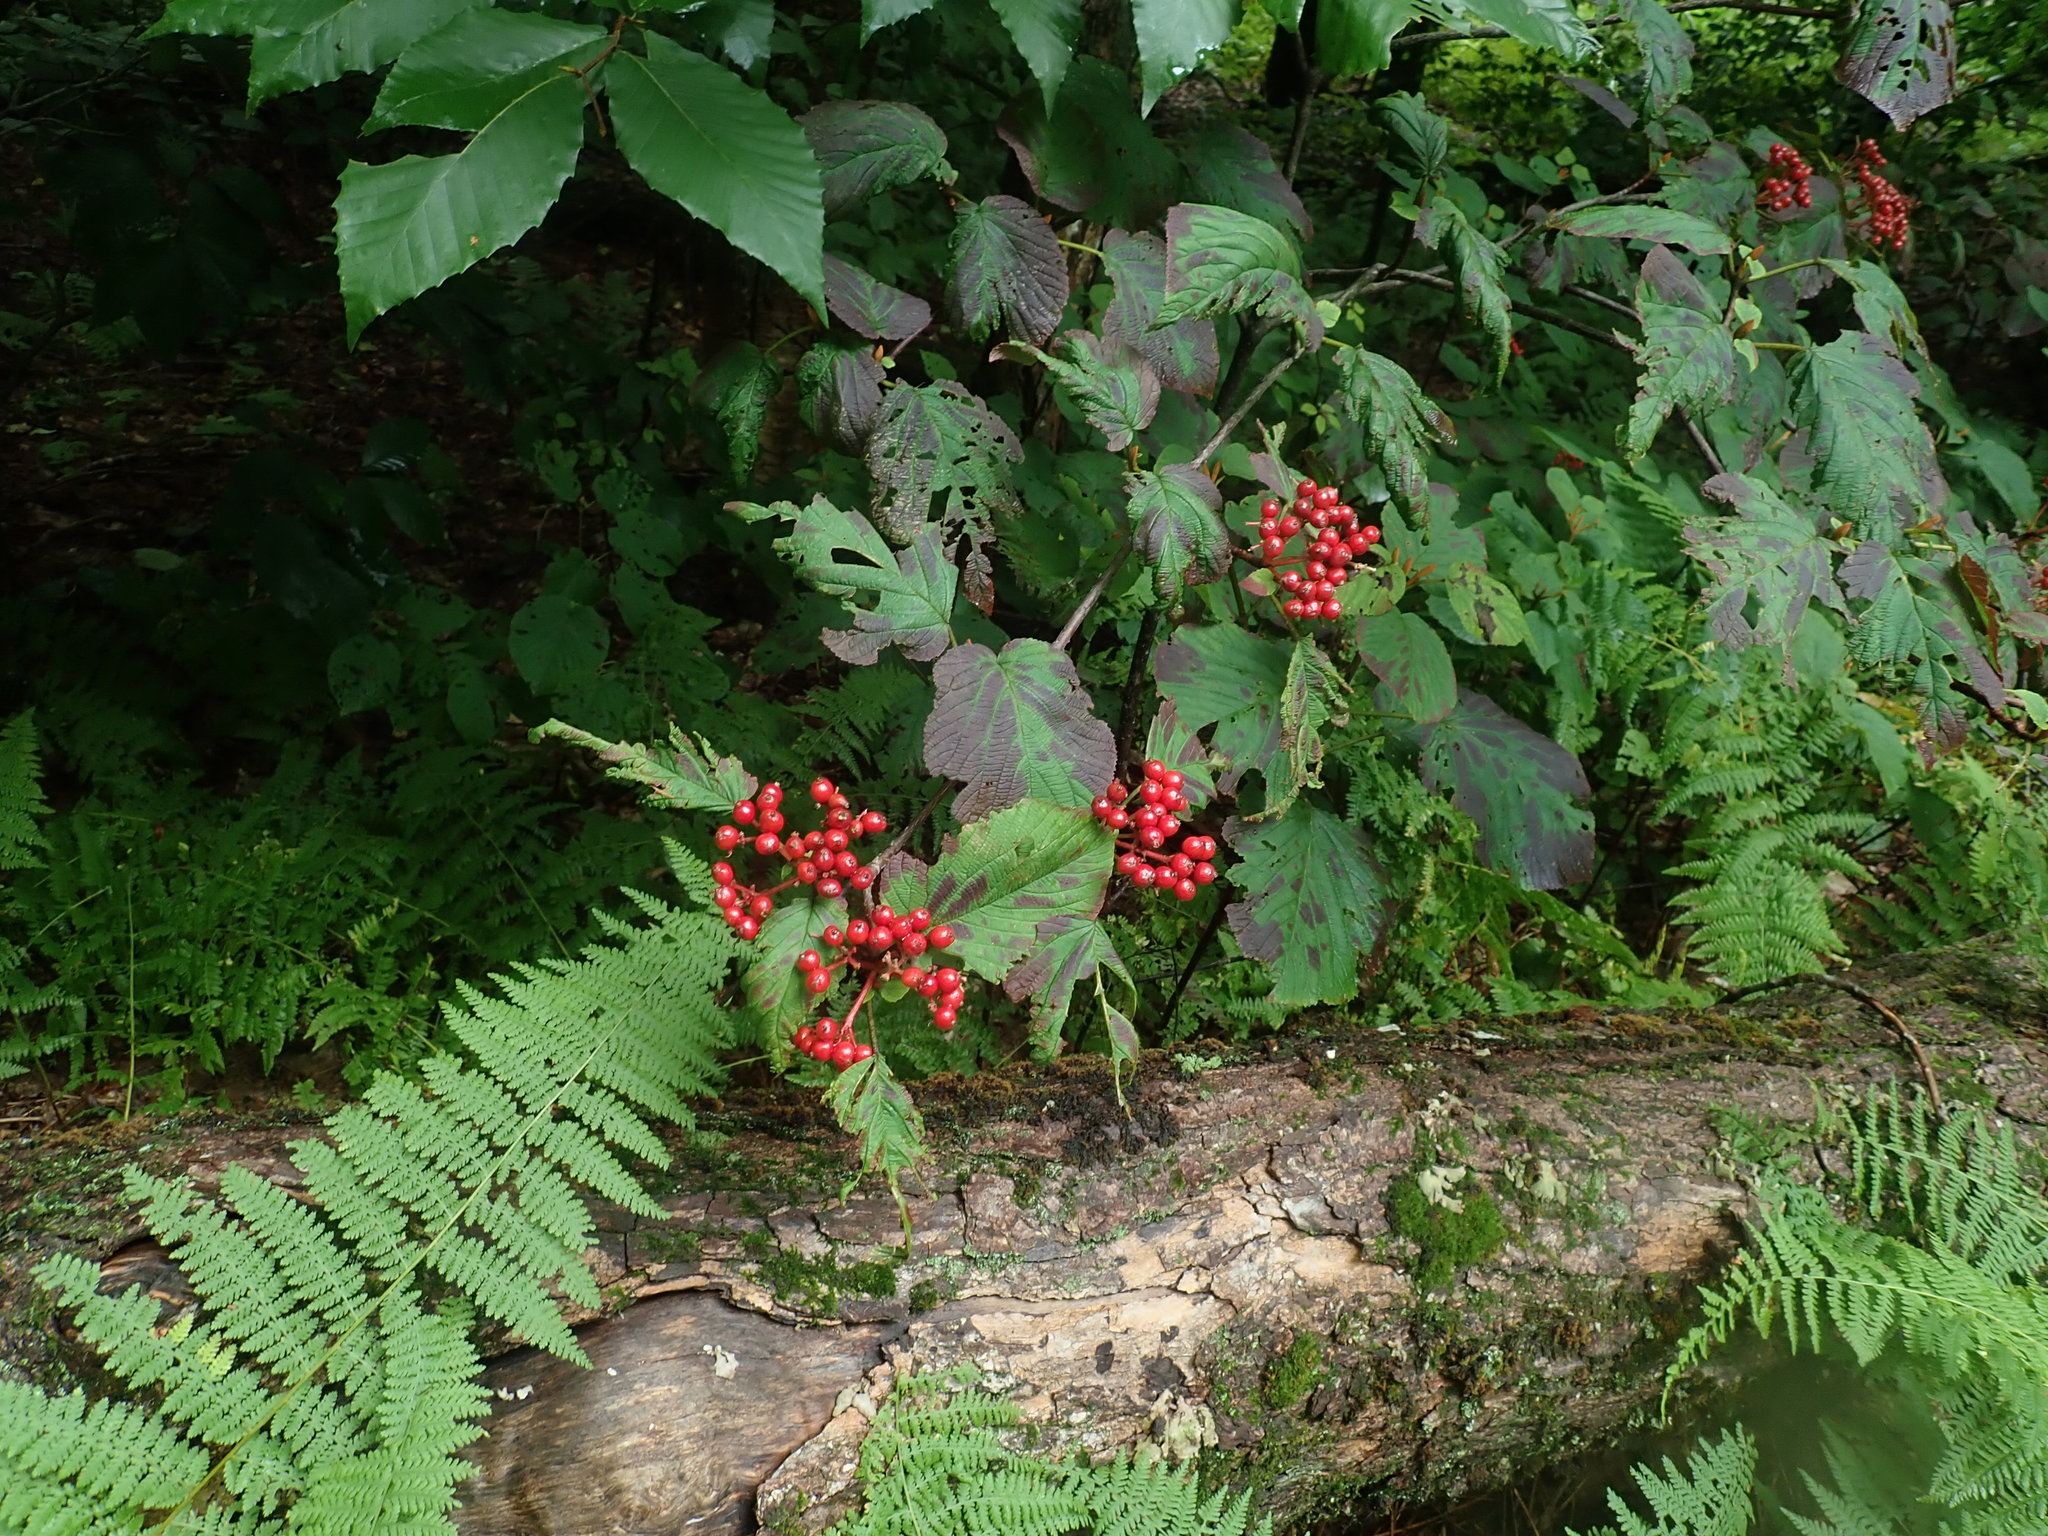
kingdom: Plantae
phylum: Tracheophyta
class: Magnoliopsida
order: Dipsacales
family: Viburnaceae
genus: Viburnum
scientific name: Viburnum lantanoides
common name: Hobblebush
